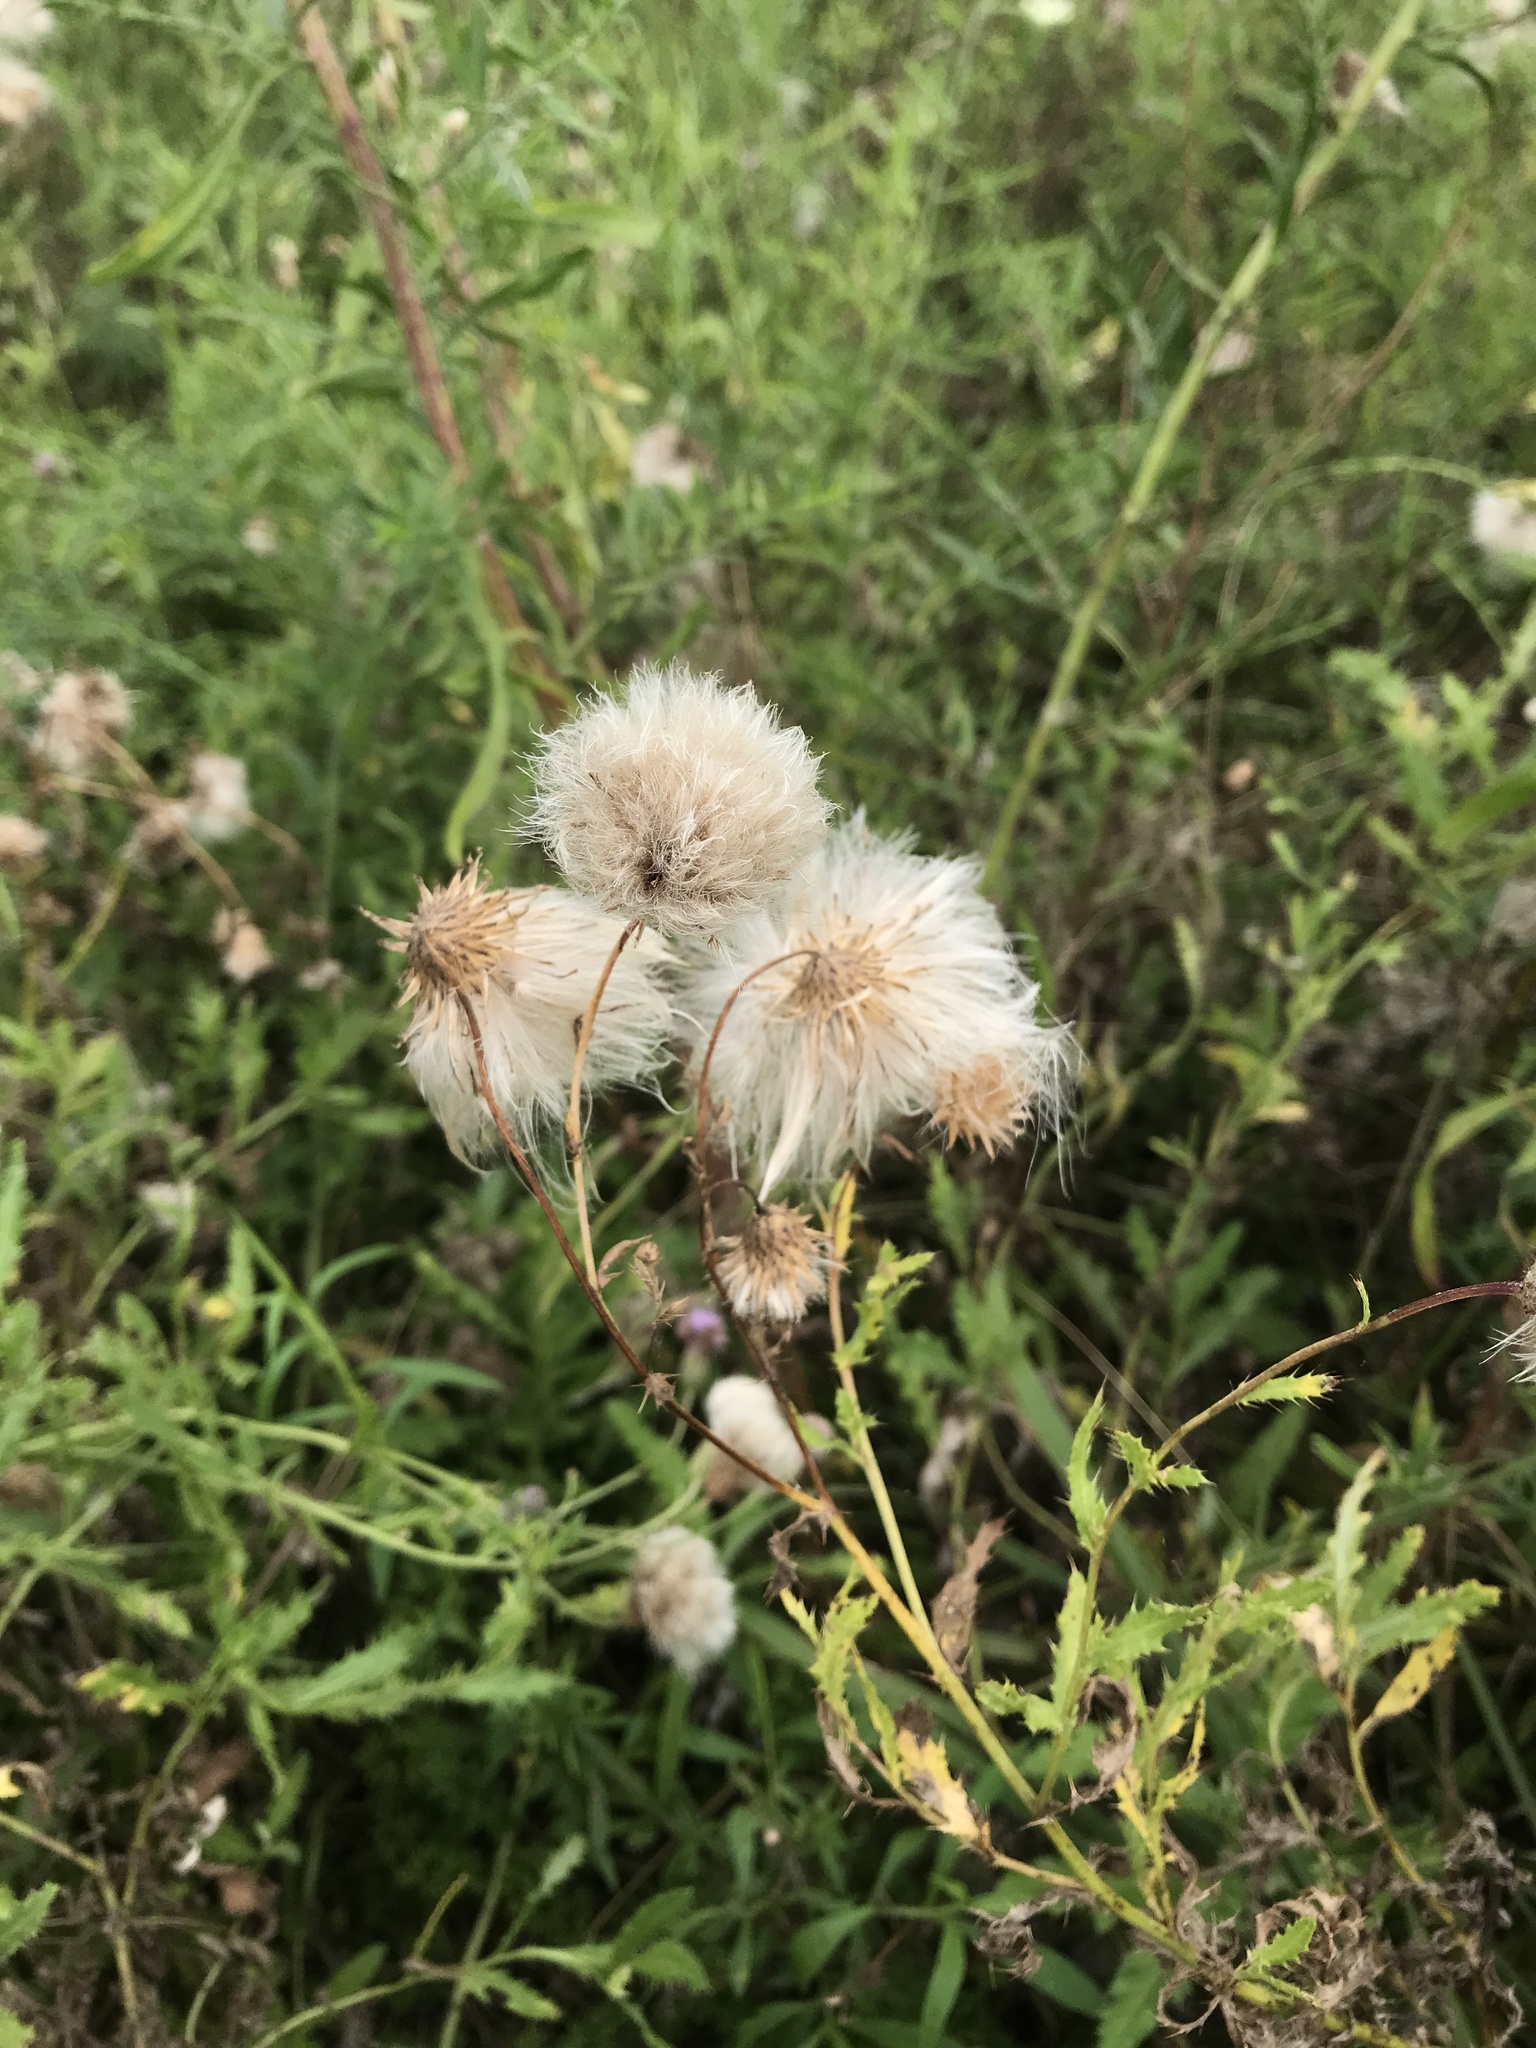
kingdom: Plantae
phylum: Tracheophyta
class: Magnoliopsida
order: Asterales
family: Asteraceae
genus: Cirsium
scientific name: Cirsium arvense
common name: Creeping thistle
